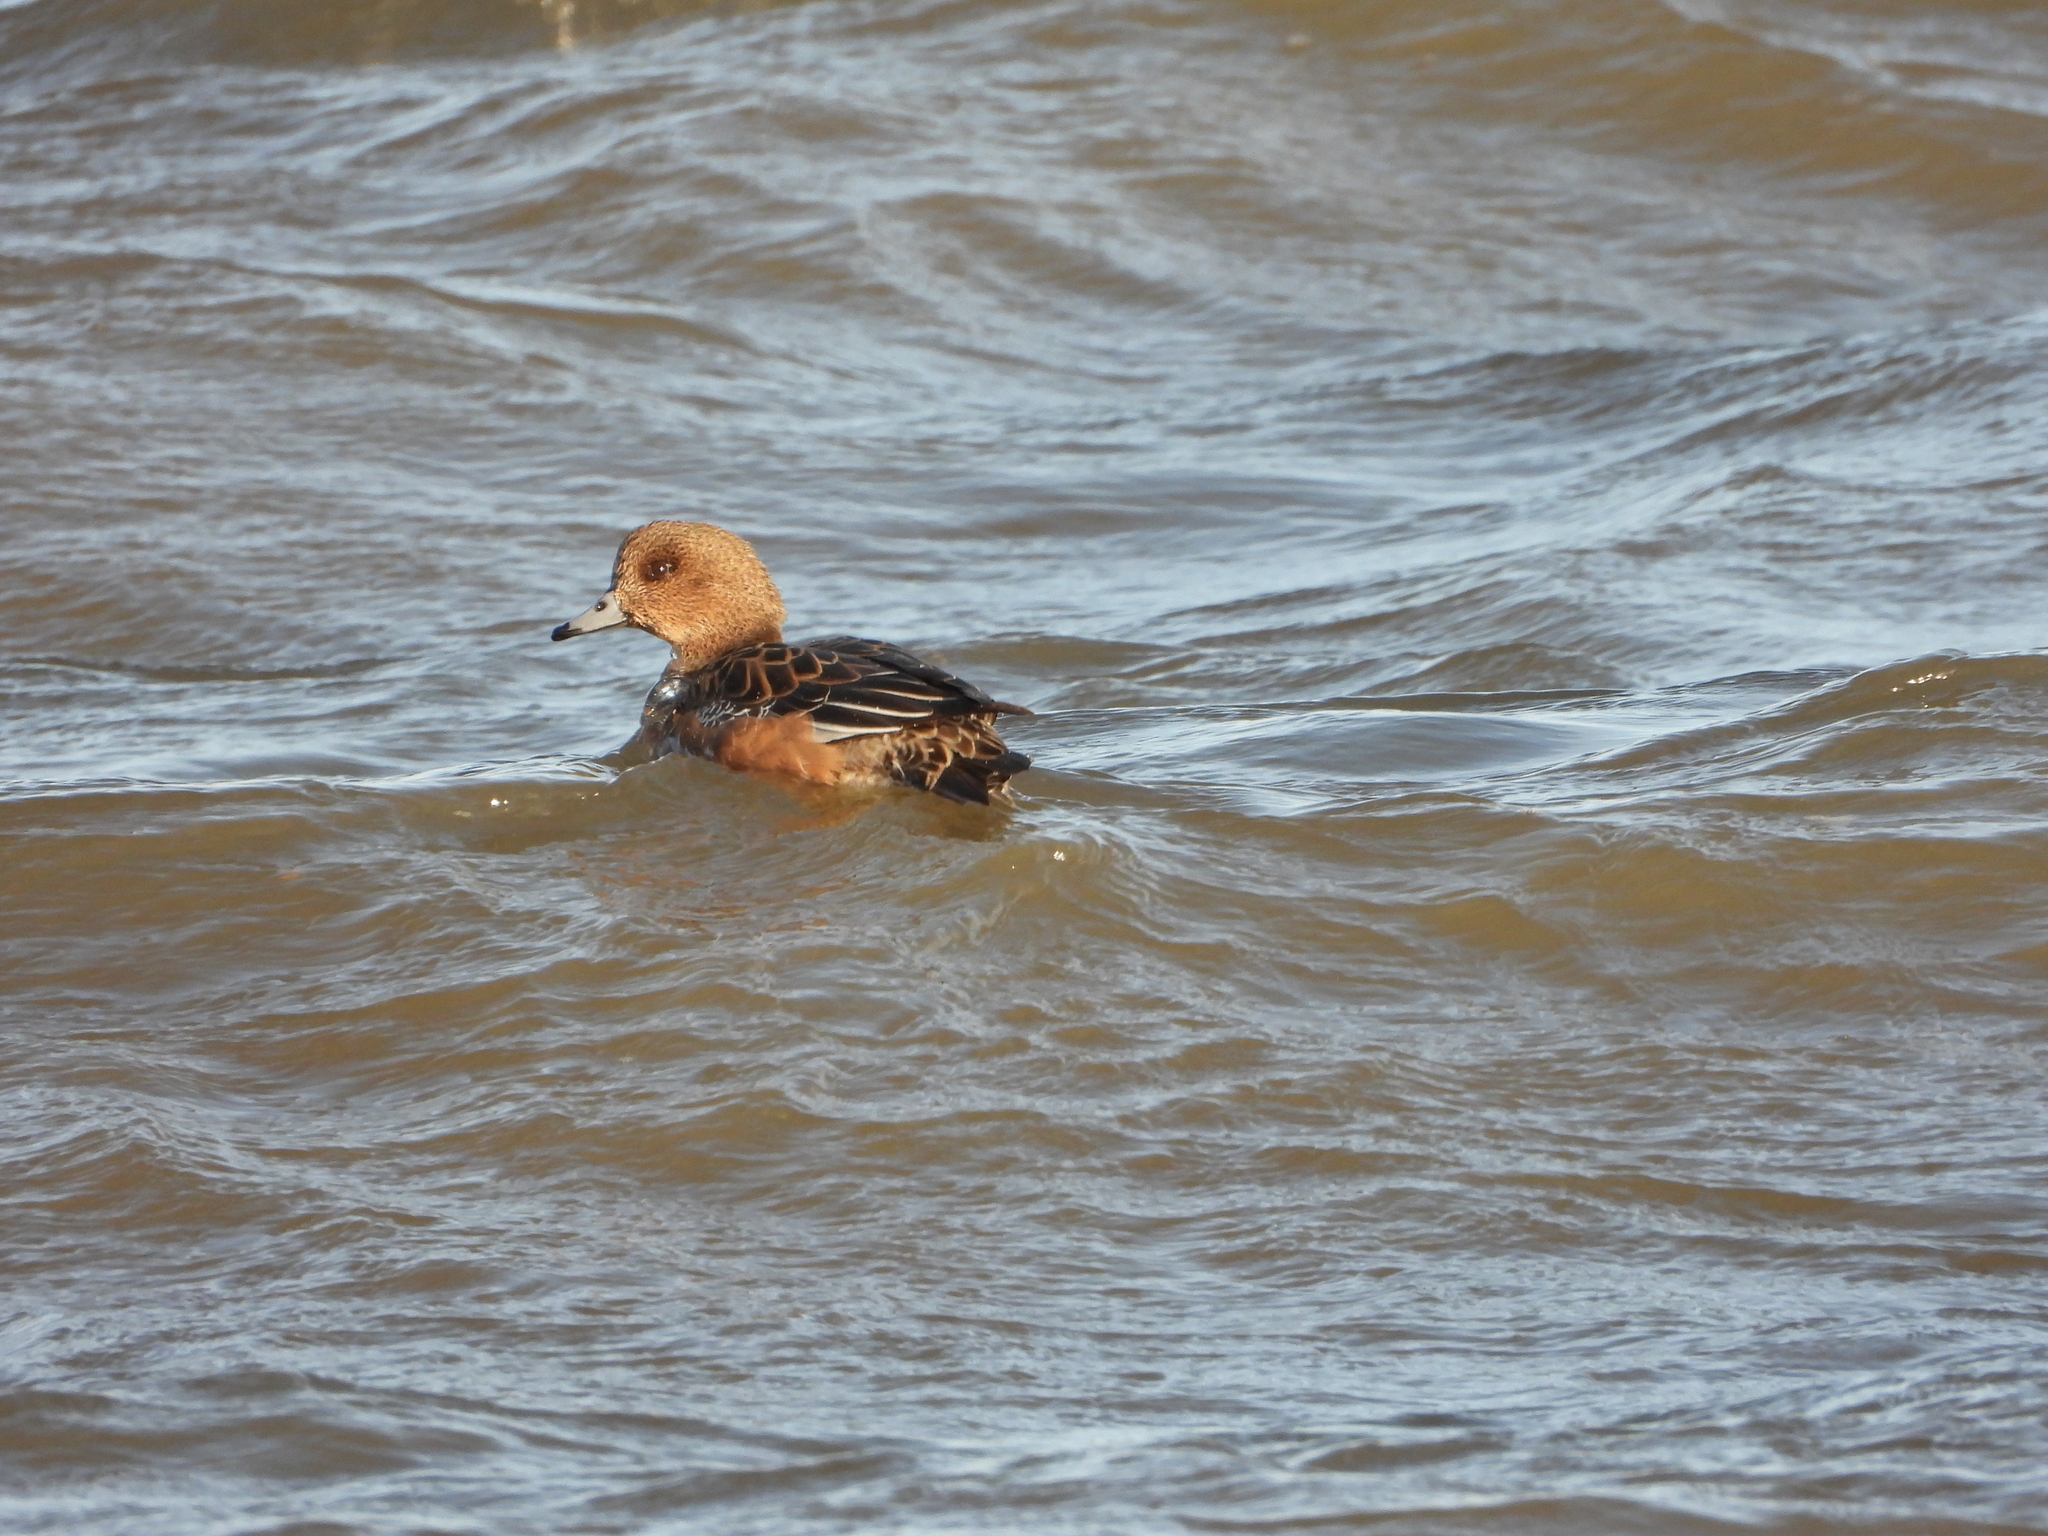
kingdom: Animalia
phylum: Chordata
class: Aves
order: Anseriformes
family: Anatidae
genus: Mareca
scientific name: Mareca penelope
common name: Eurasian wigeon
